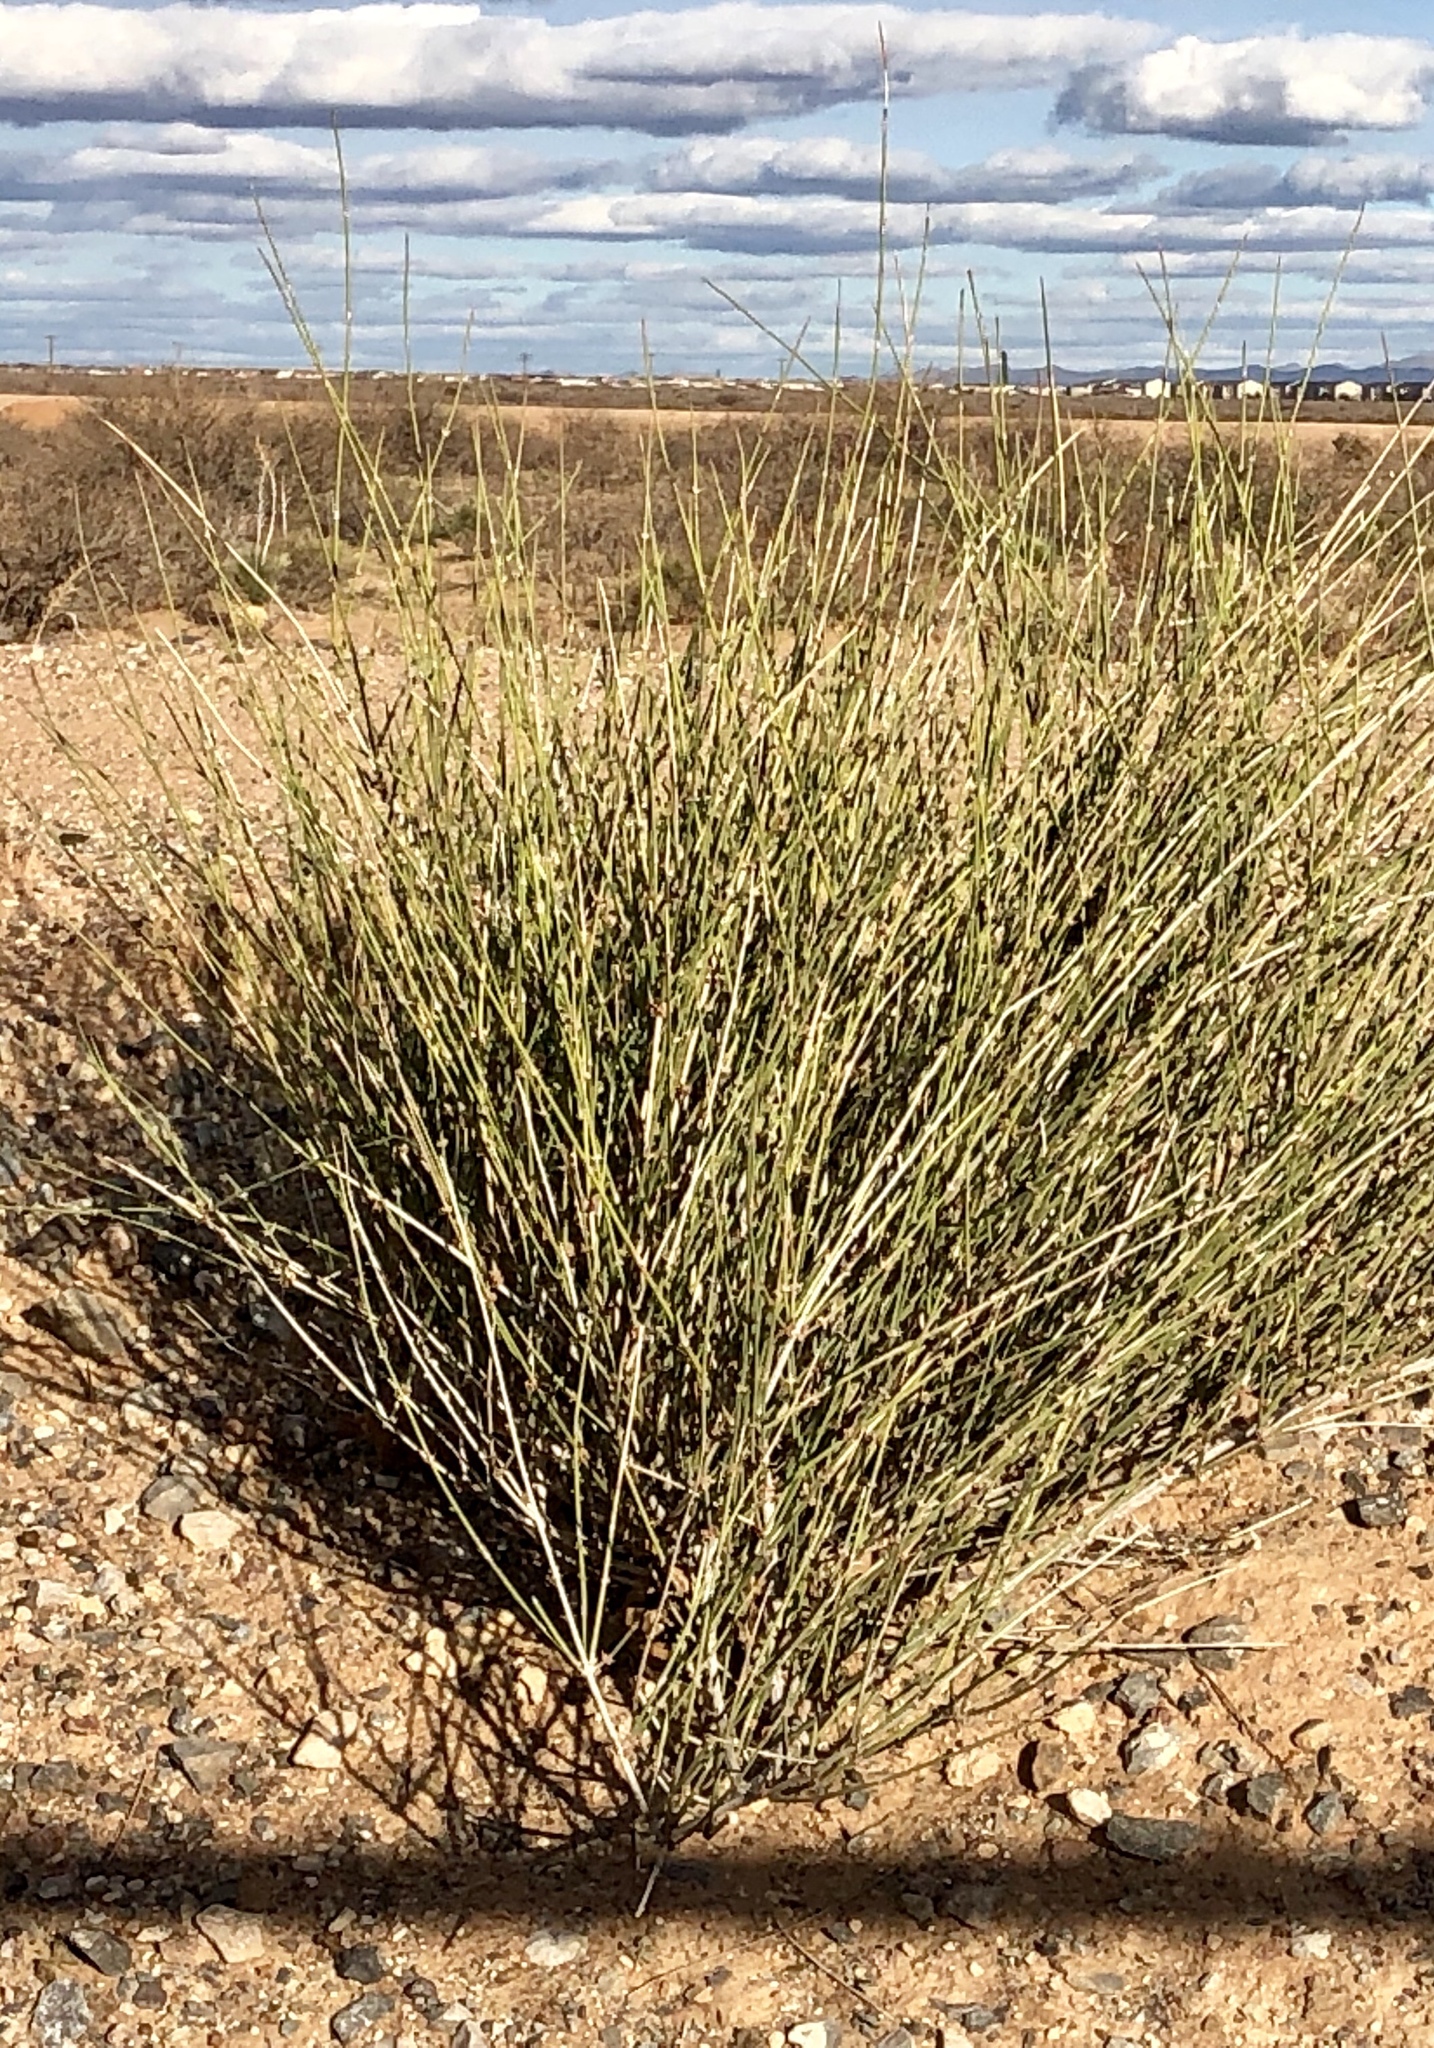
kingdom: Plantae
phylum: Tracheophyta
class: Gnetopsida
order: Ephedrales
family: Ephedraceae
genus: Ephedra
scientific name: Ephedra trifurca
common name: Mexican-tea
